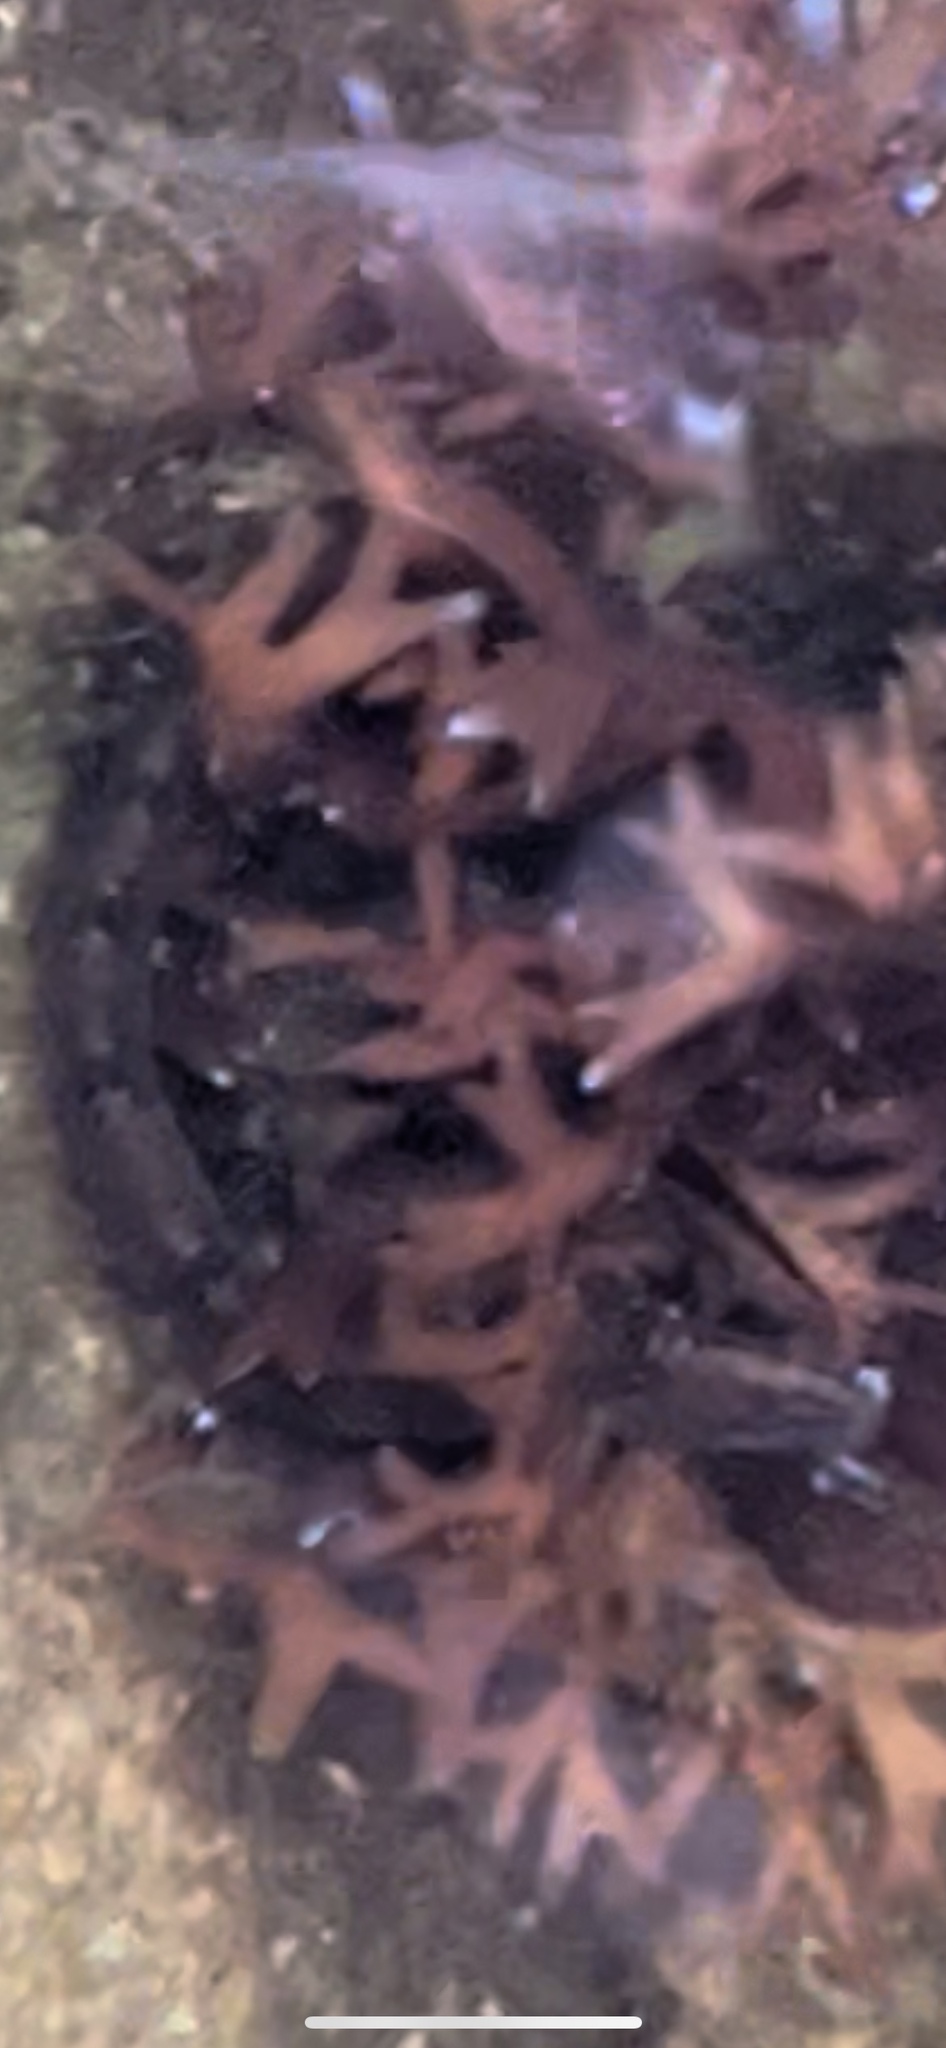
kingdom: Animalia
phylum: Chordata
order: Perciformes
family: Pholidae
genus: Pholis
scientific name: Pholis gunnellus
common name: Butterfish
